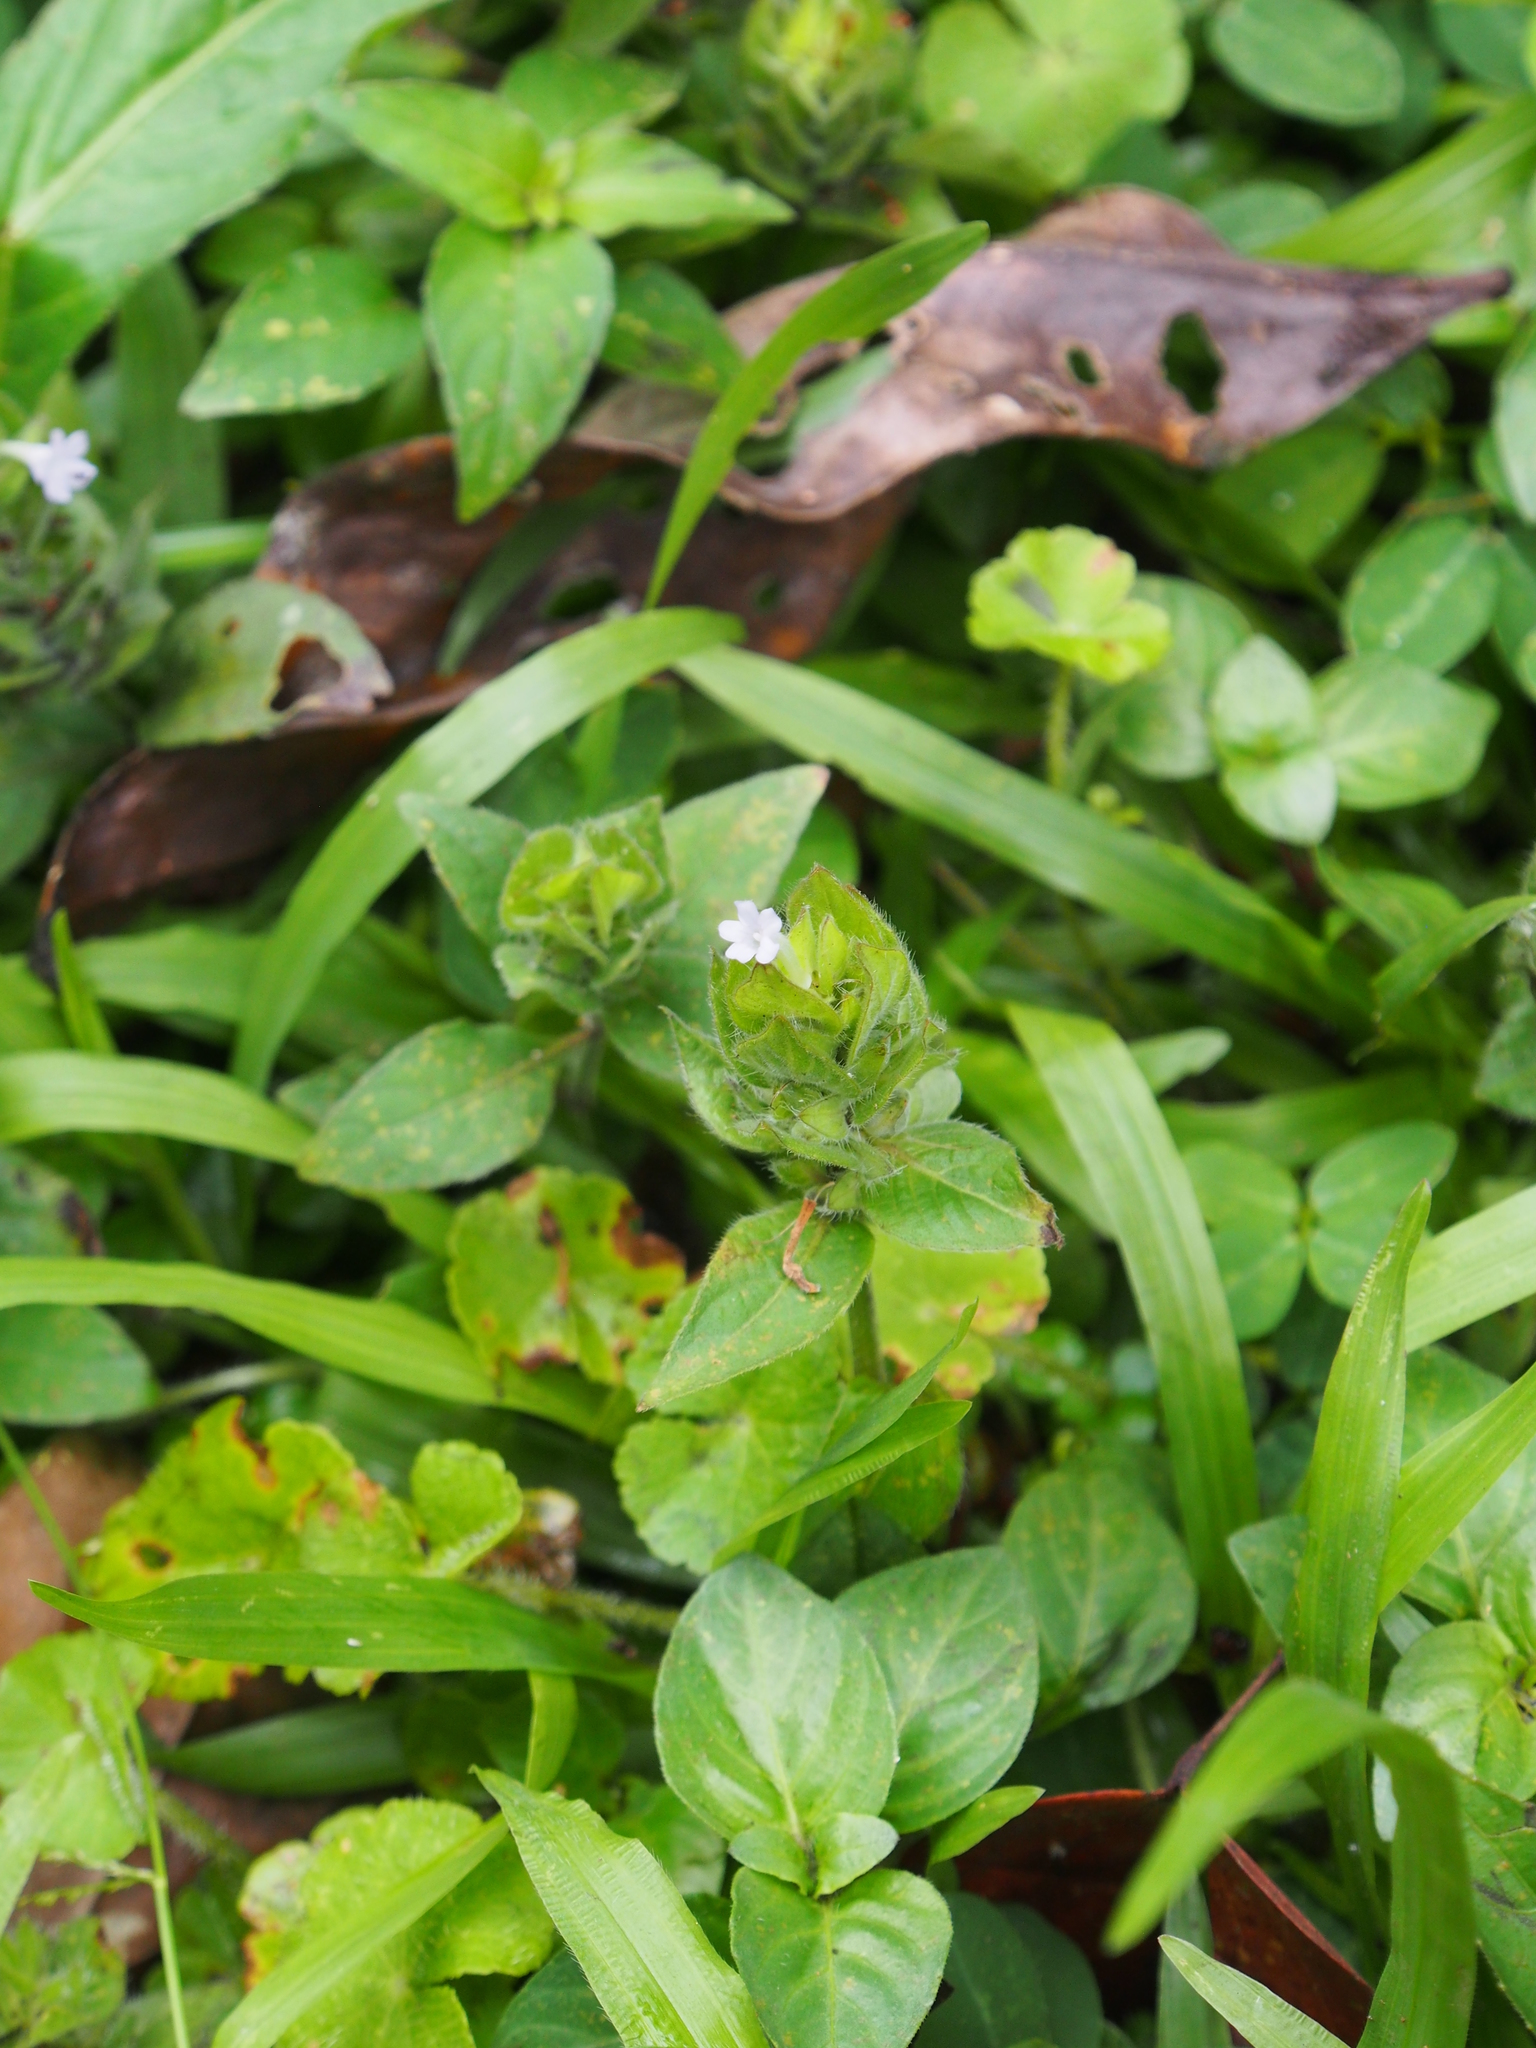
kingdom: Plantae
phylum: Tracheophyta
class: Magnoliopsida
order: Lamiales
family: Acanthaceae
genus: Ruellia
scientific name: Ruellia blechum
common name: Browne's blechum
